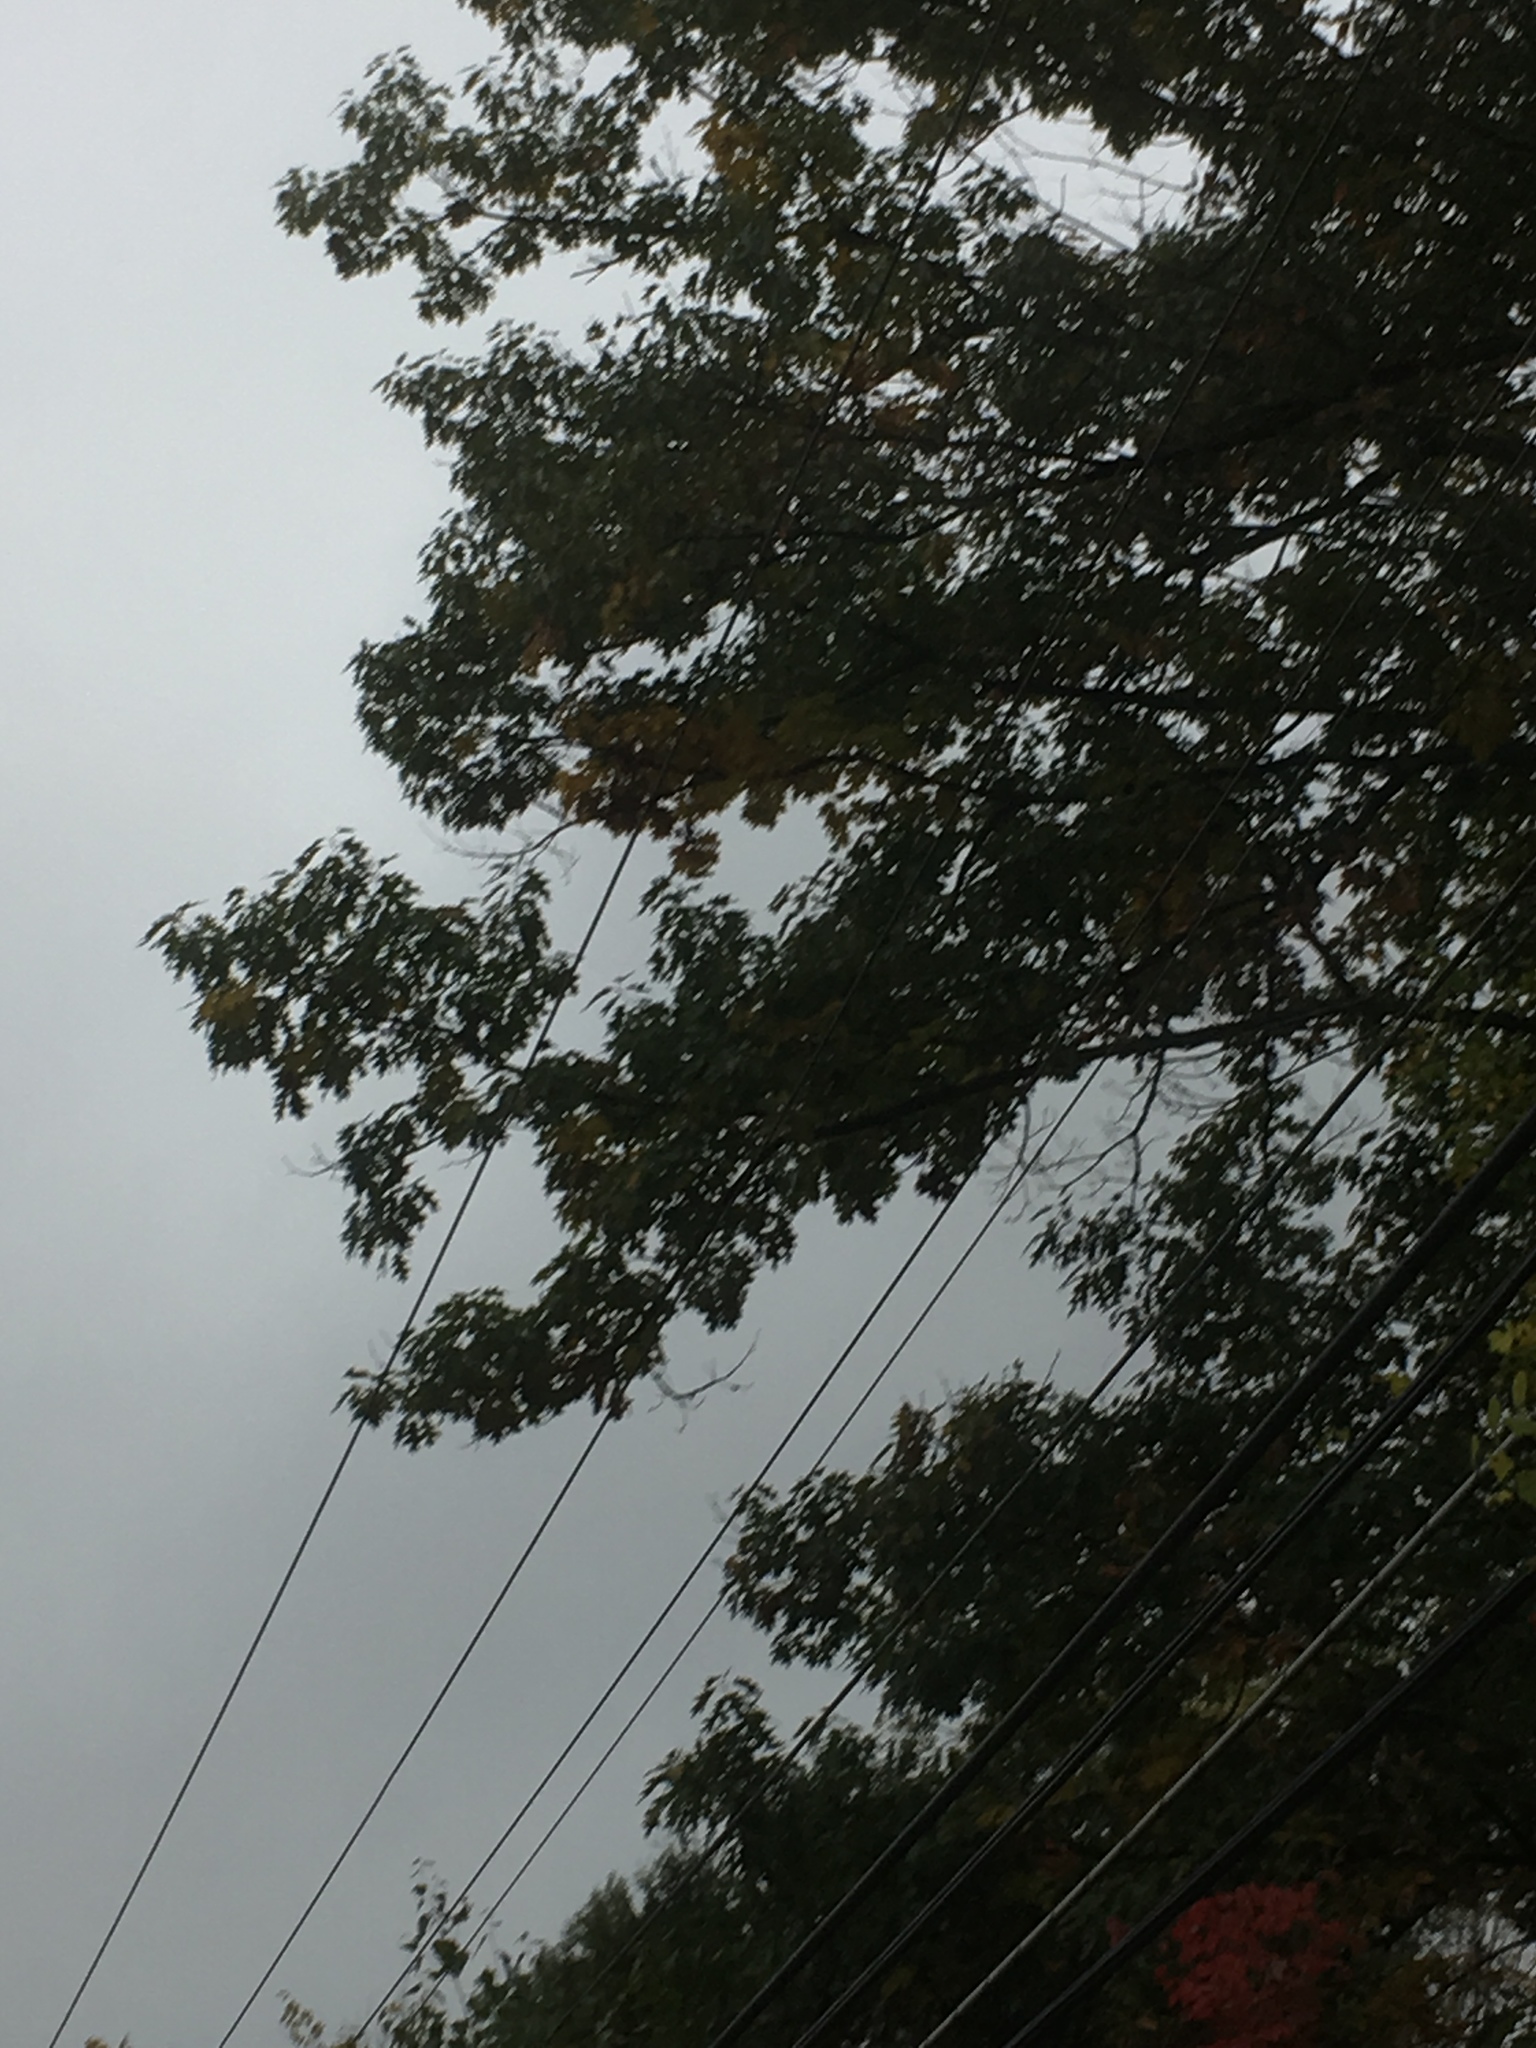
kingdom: Plantae
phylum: Tracheophyta
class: Magnoliopsida
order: Fagales
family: Fagaceae
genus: Quercus
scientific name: Quercus rubra
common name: Red oak
